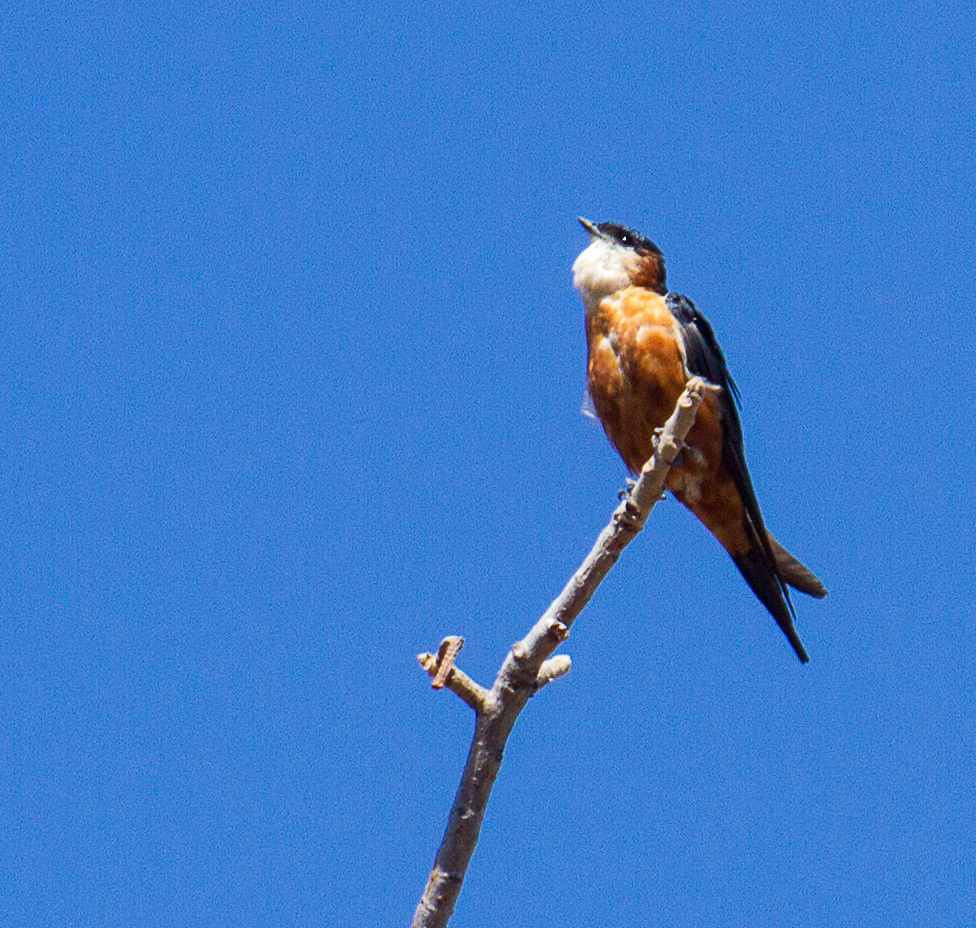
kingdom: Animalia
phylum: Chordata
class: Aves
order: Passeriformes
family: Hirundinidae
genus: Cecropis
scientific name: Cecropis senegalensis
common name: Mosque swallow
